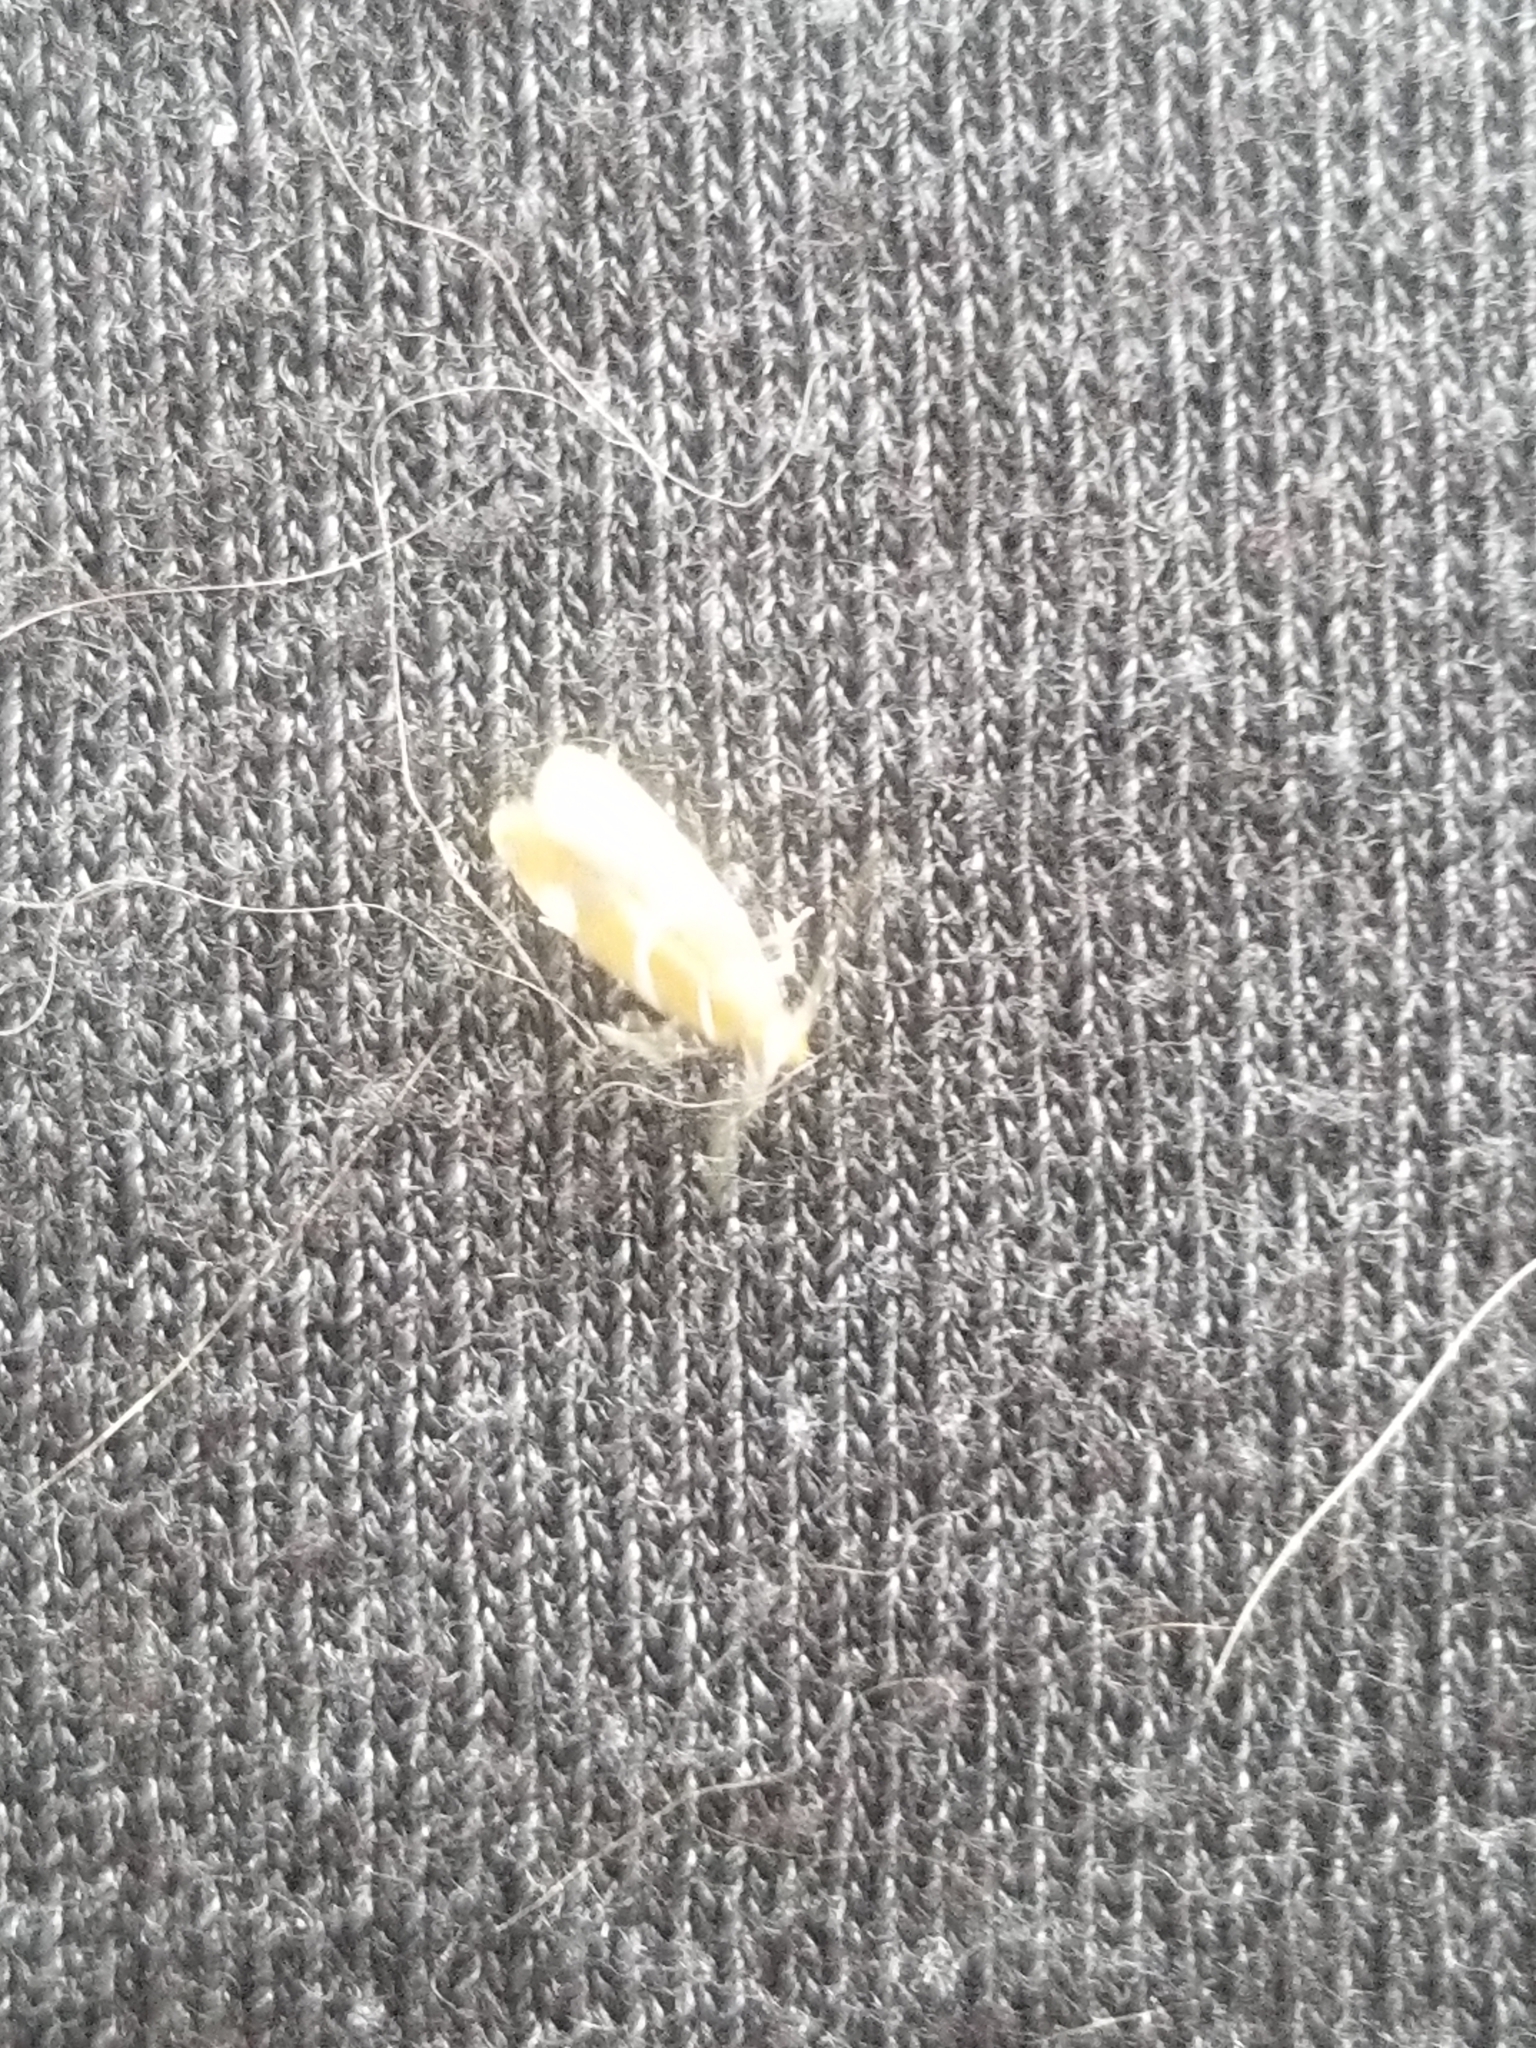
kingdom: Animalia
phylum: Arthropoda
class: Insecta
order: Lepidoptera
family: Oecophoridae
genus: Promalactis
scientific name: Promalactis suzukiella
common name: Moth
